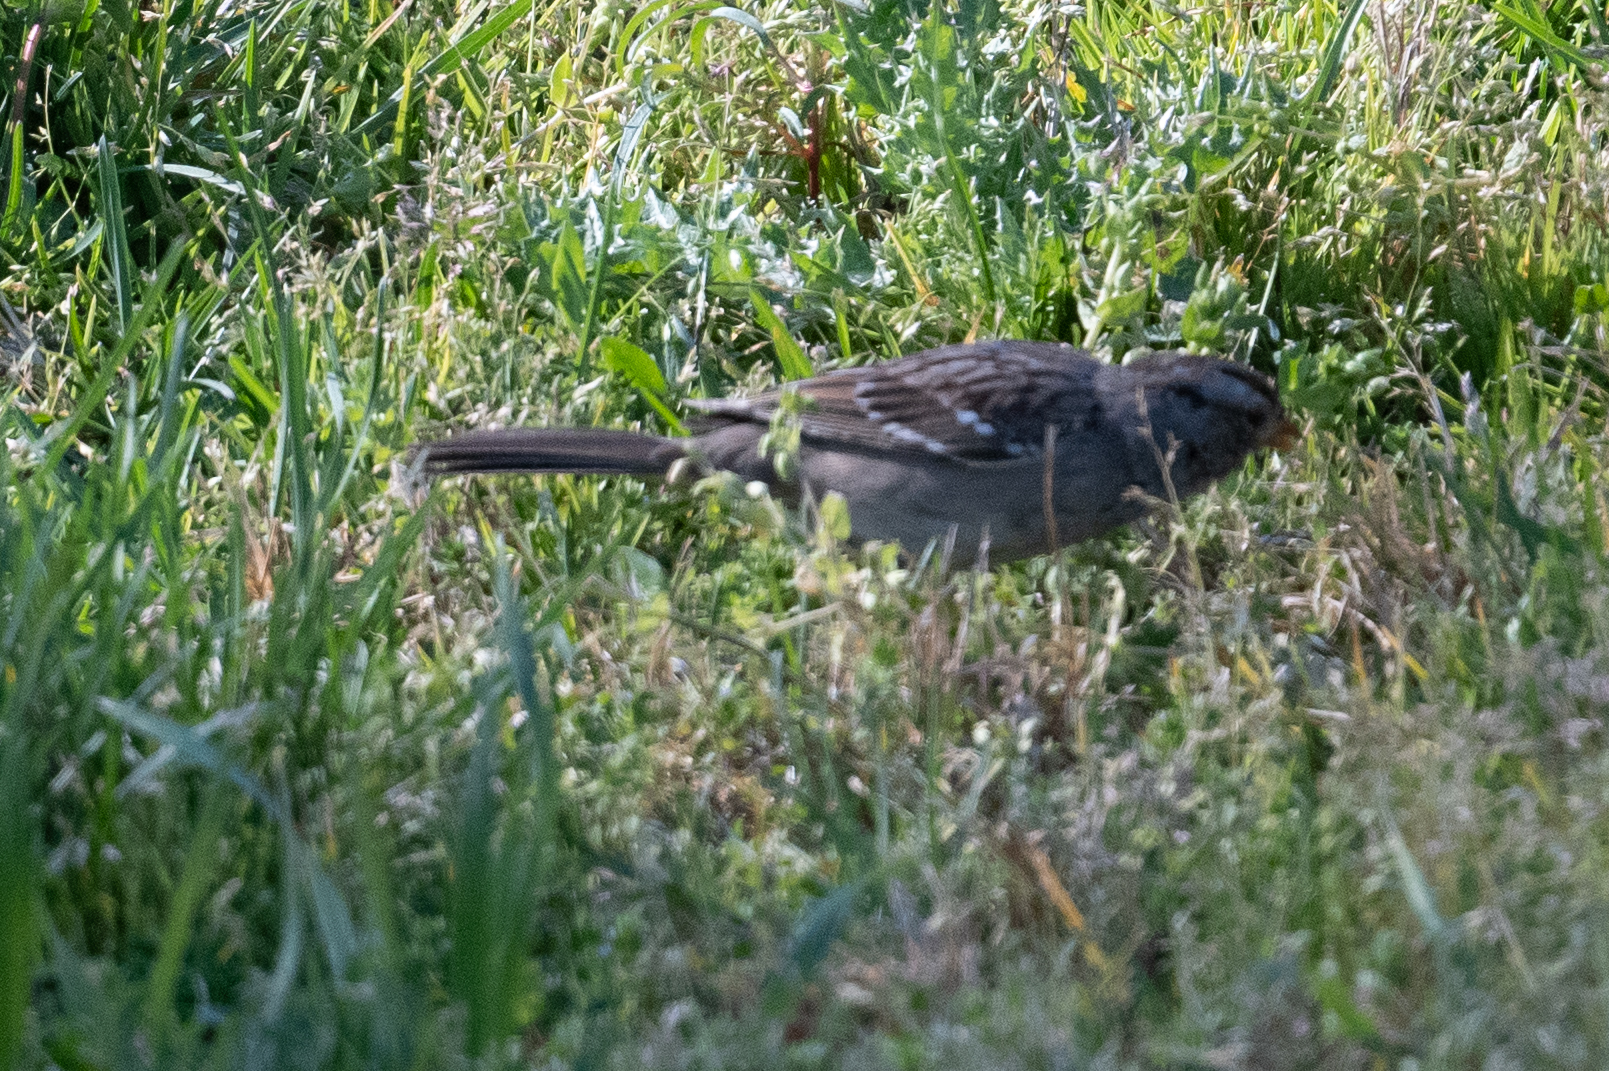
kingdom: Animalia
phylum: Chordata
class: Aves
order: Passeriformes
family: Passerellidae
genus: Zonotrichia
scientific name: Zonotrichia leucophrys
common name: White-crowned sparrow
